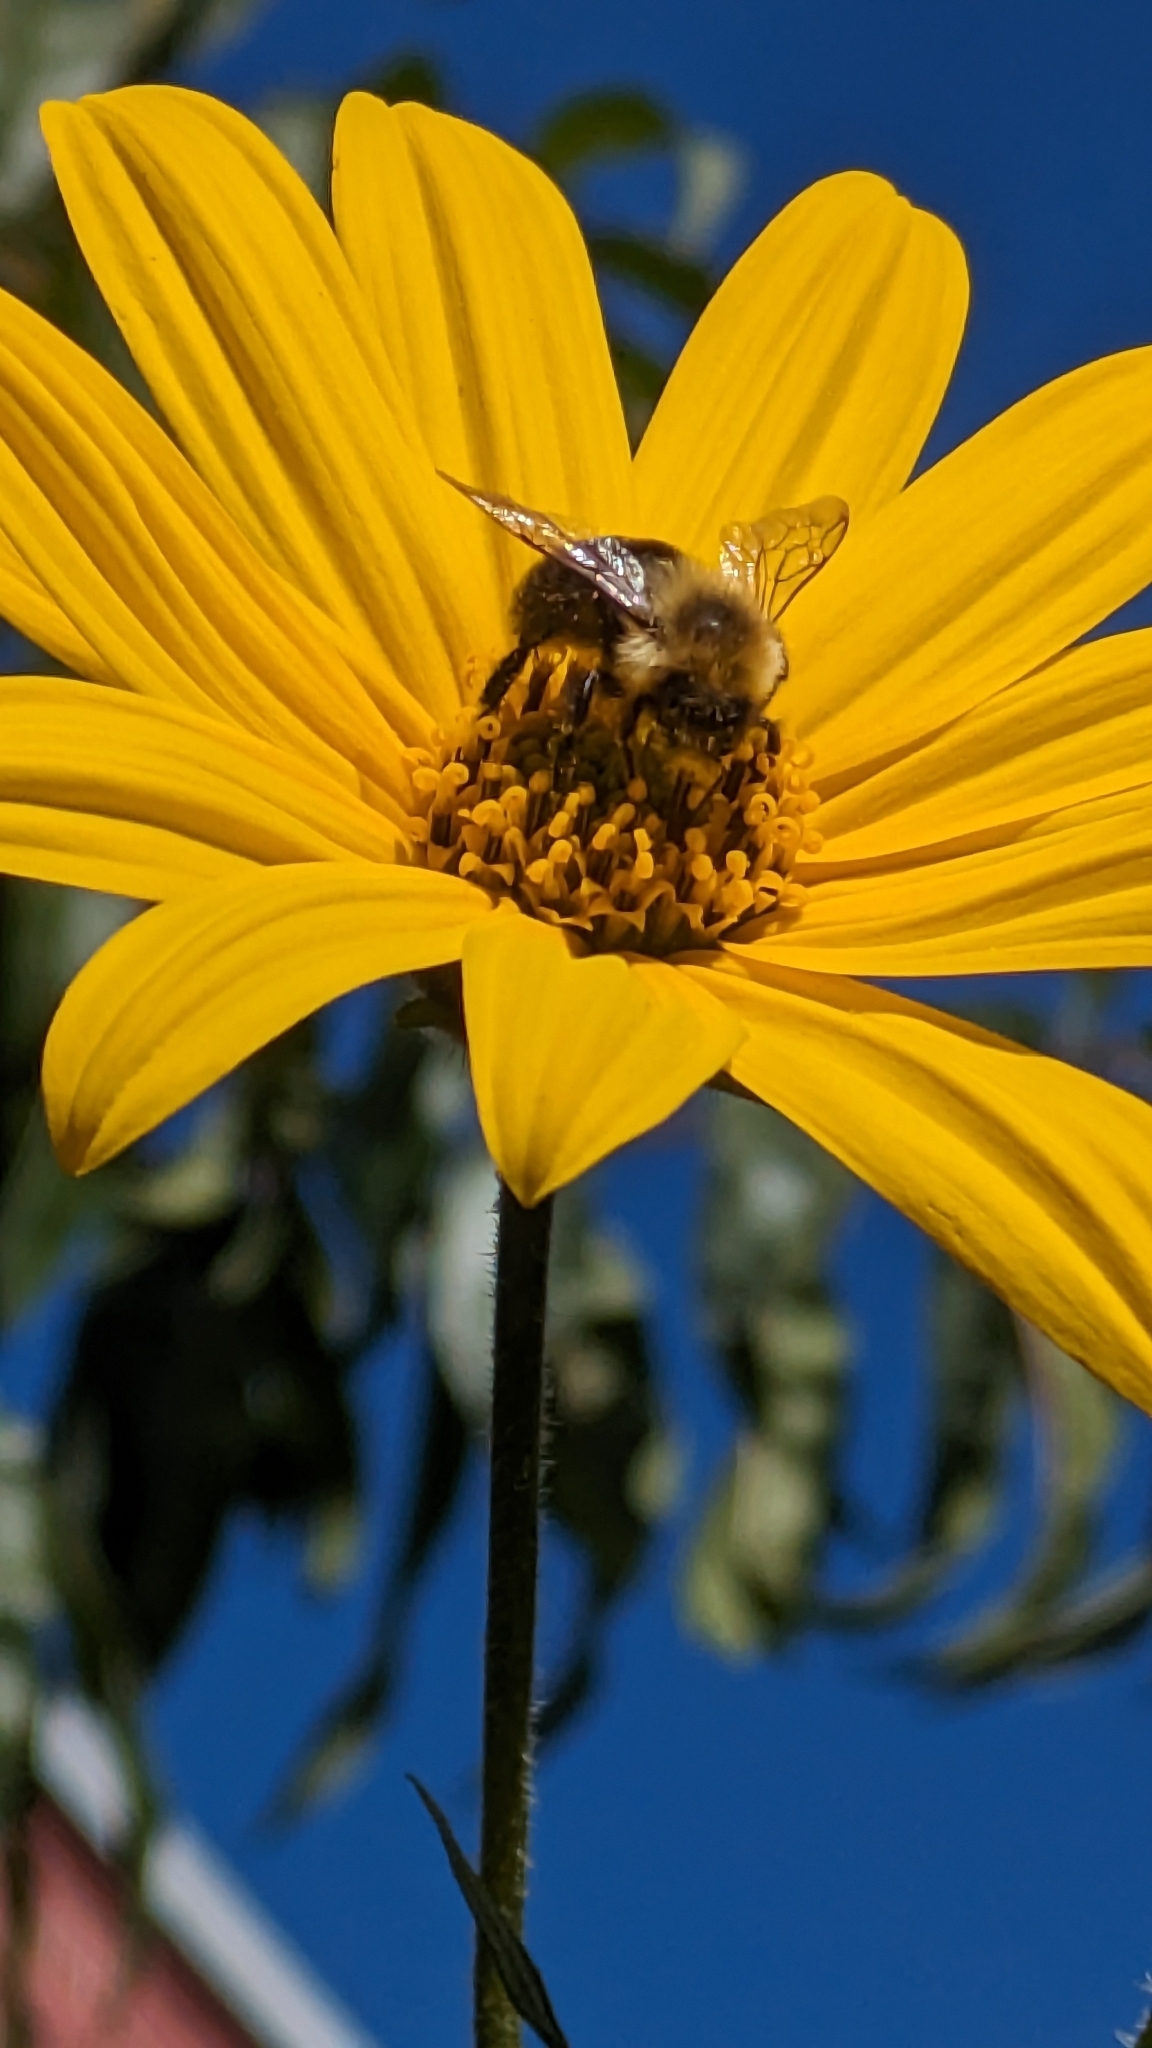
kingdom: Animalia
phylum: Arthropoda
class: Insecta
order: Hymenoptera
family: Apidae
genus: Bombus
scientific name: Bombus impatiens
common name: Common eastern bumble bee
